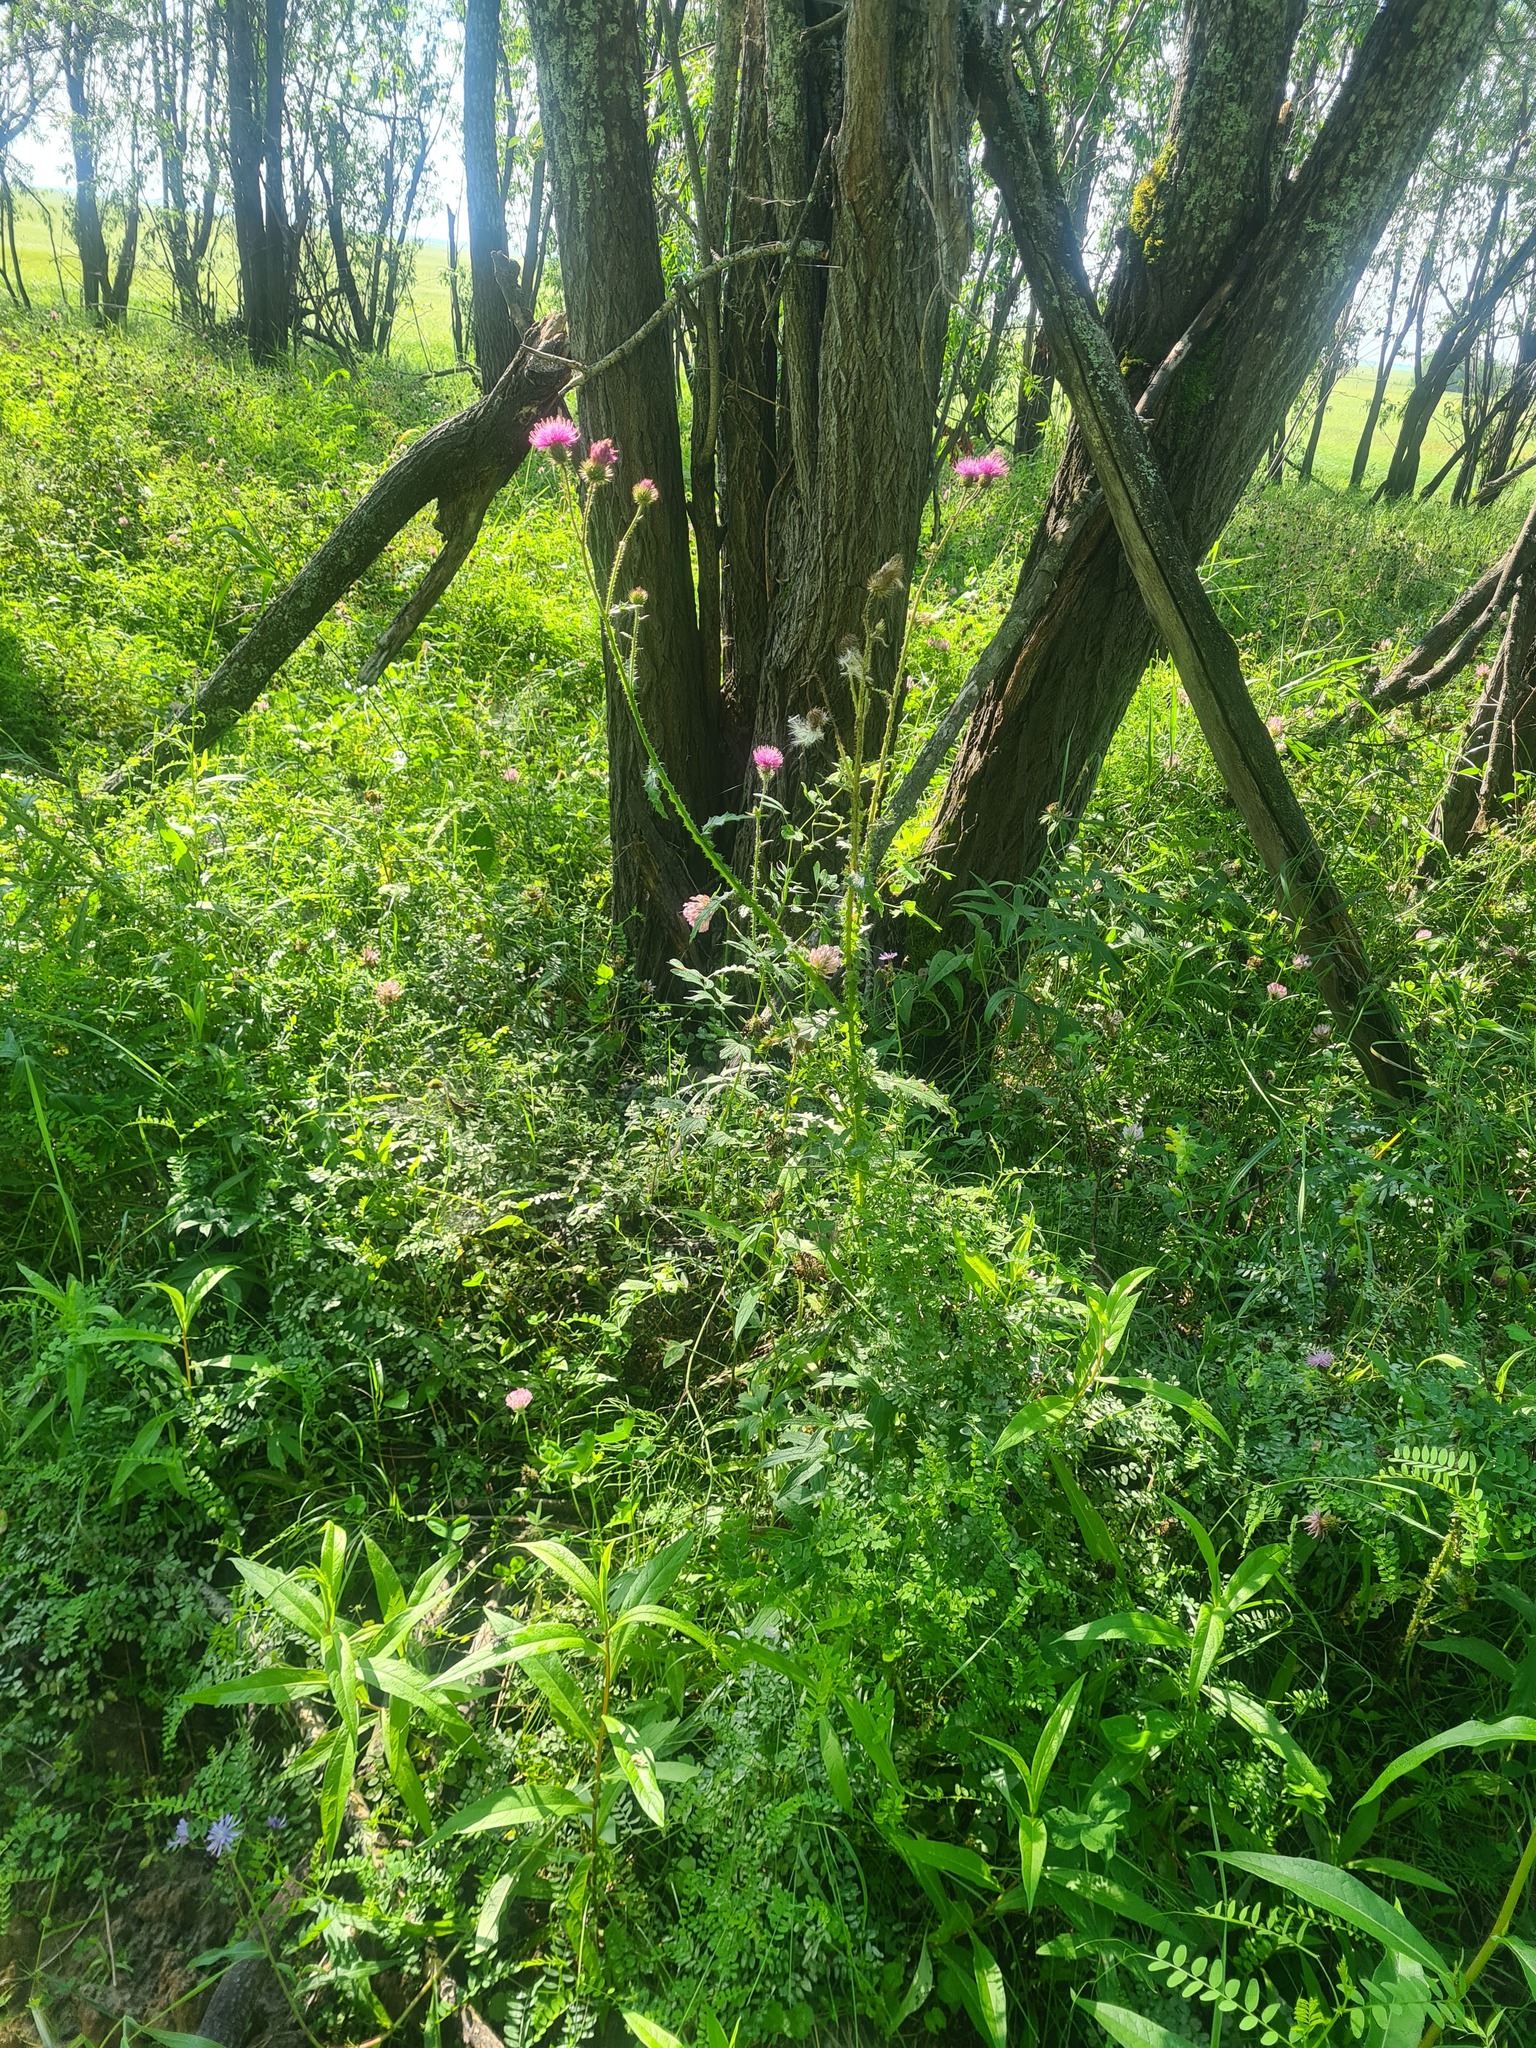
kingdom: Plantae
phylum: Tracheophyta
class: Magnoliopsida
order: Asterales
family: Asteraceae
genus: Carduus
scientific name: Carduus crispus
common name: Welted thistle
